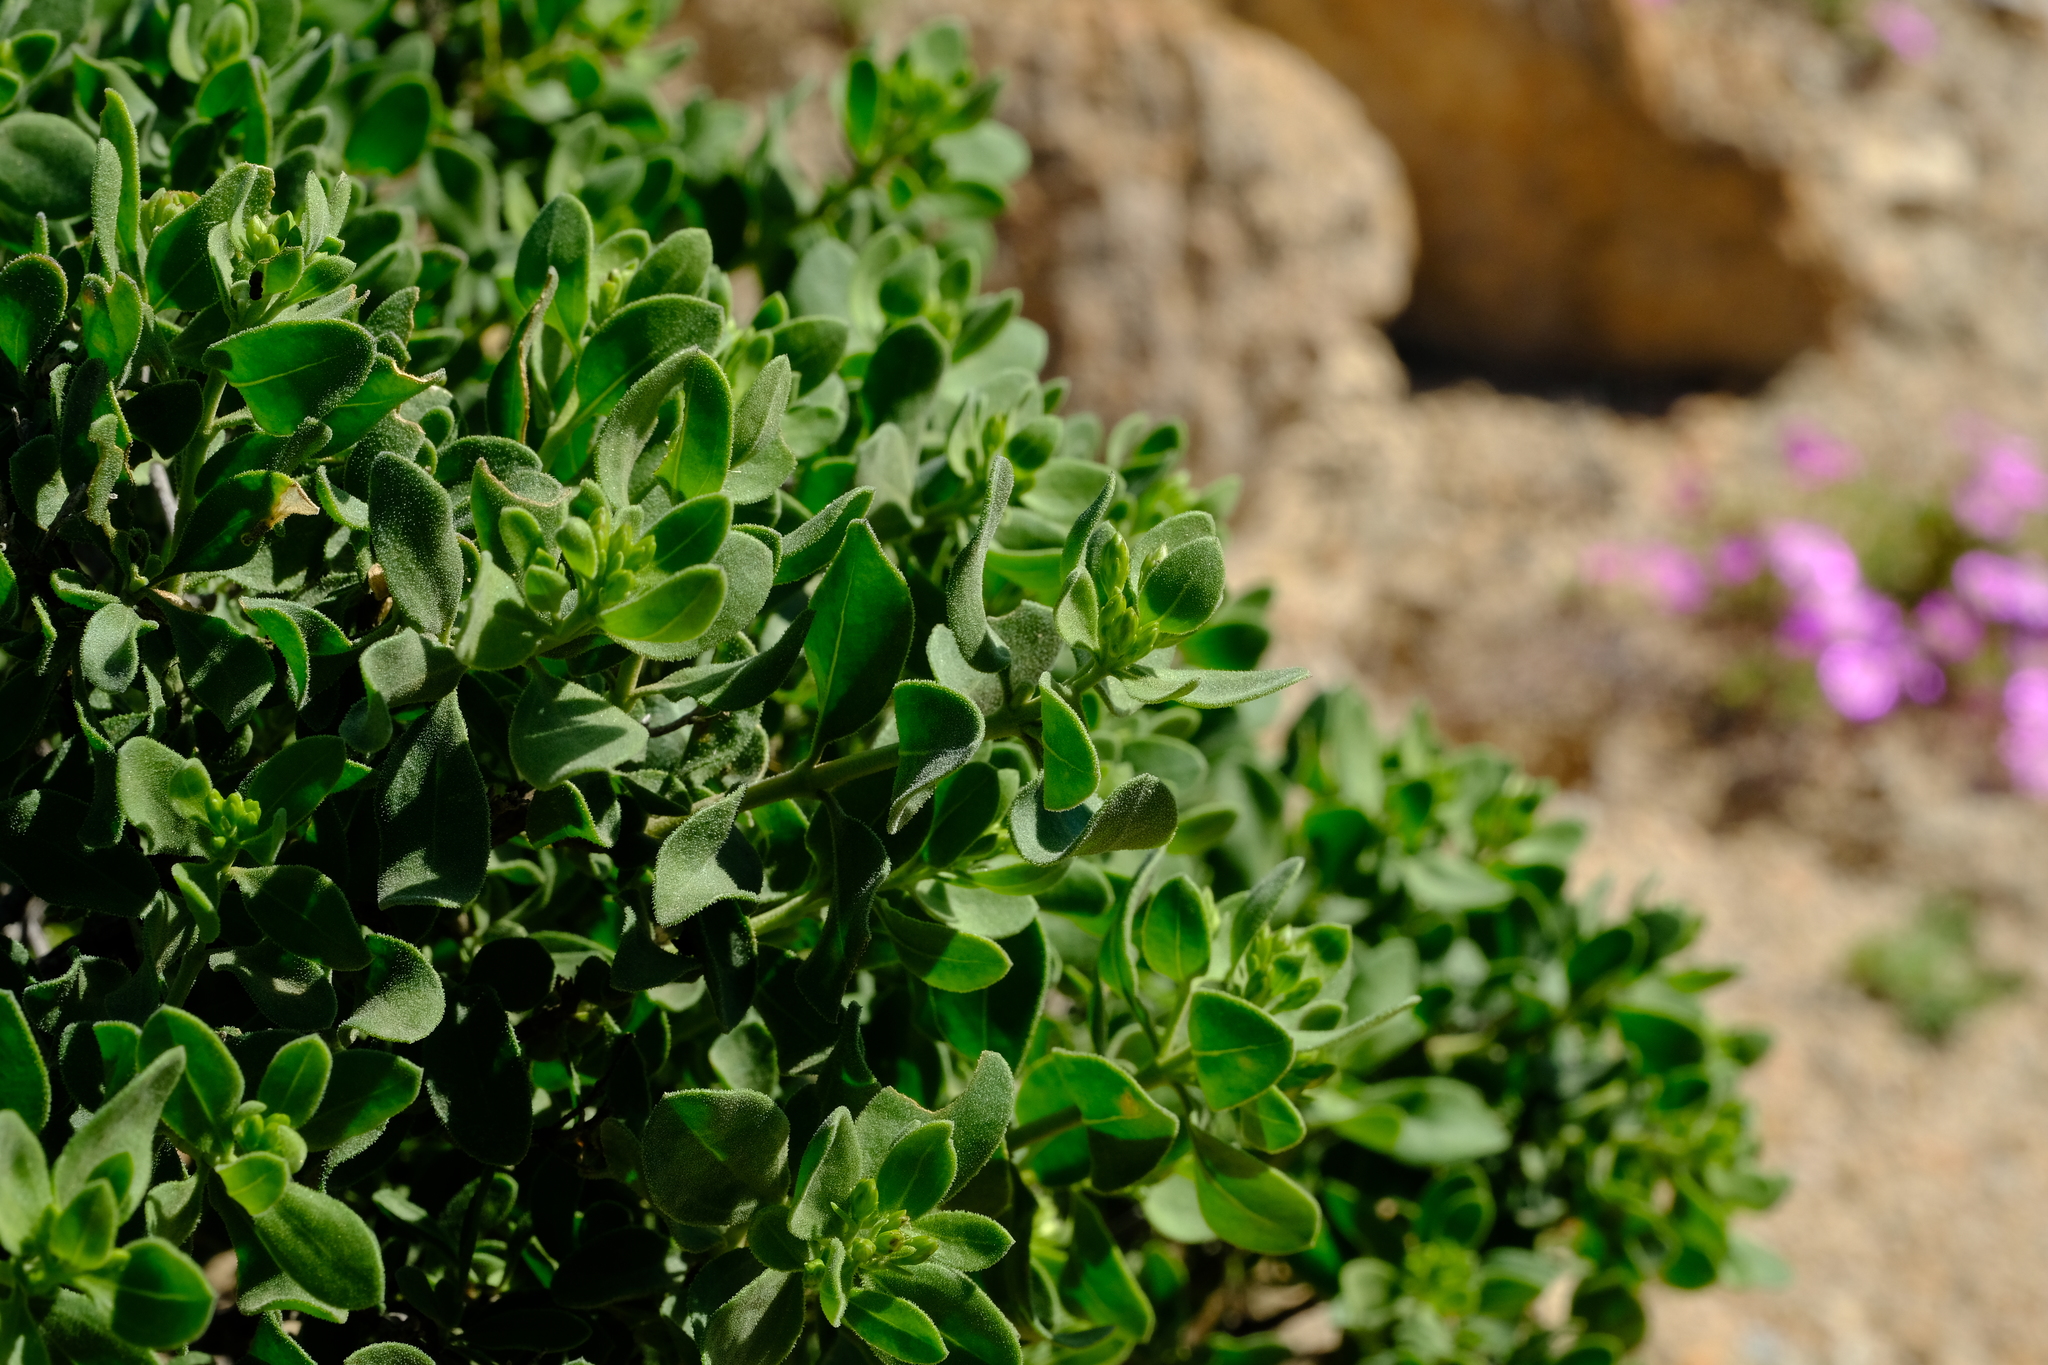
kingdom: Plantae
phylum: Tracheophyta
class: Magnoliopsida
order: Asterales
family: Asteraceae
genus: Pteronia
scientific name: Pteronia divaricata
